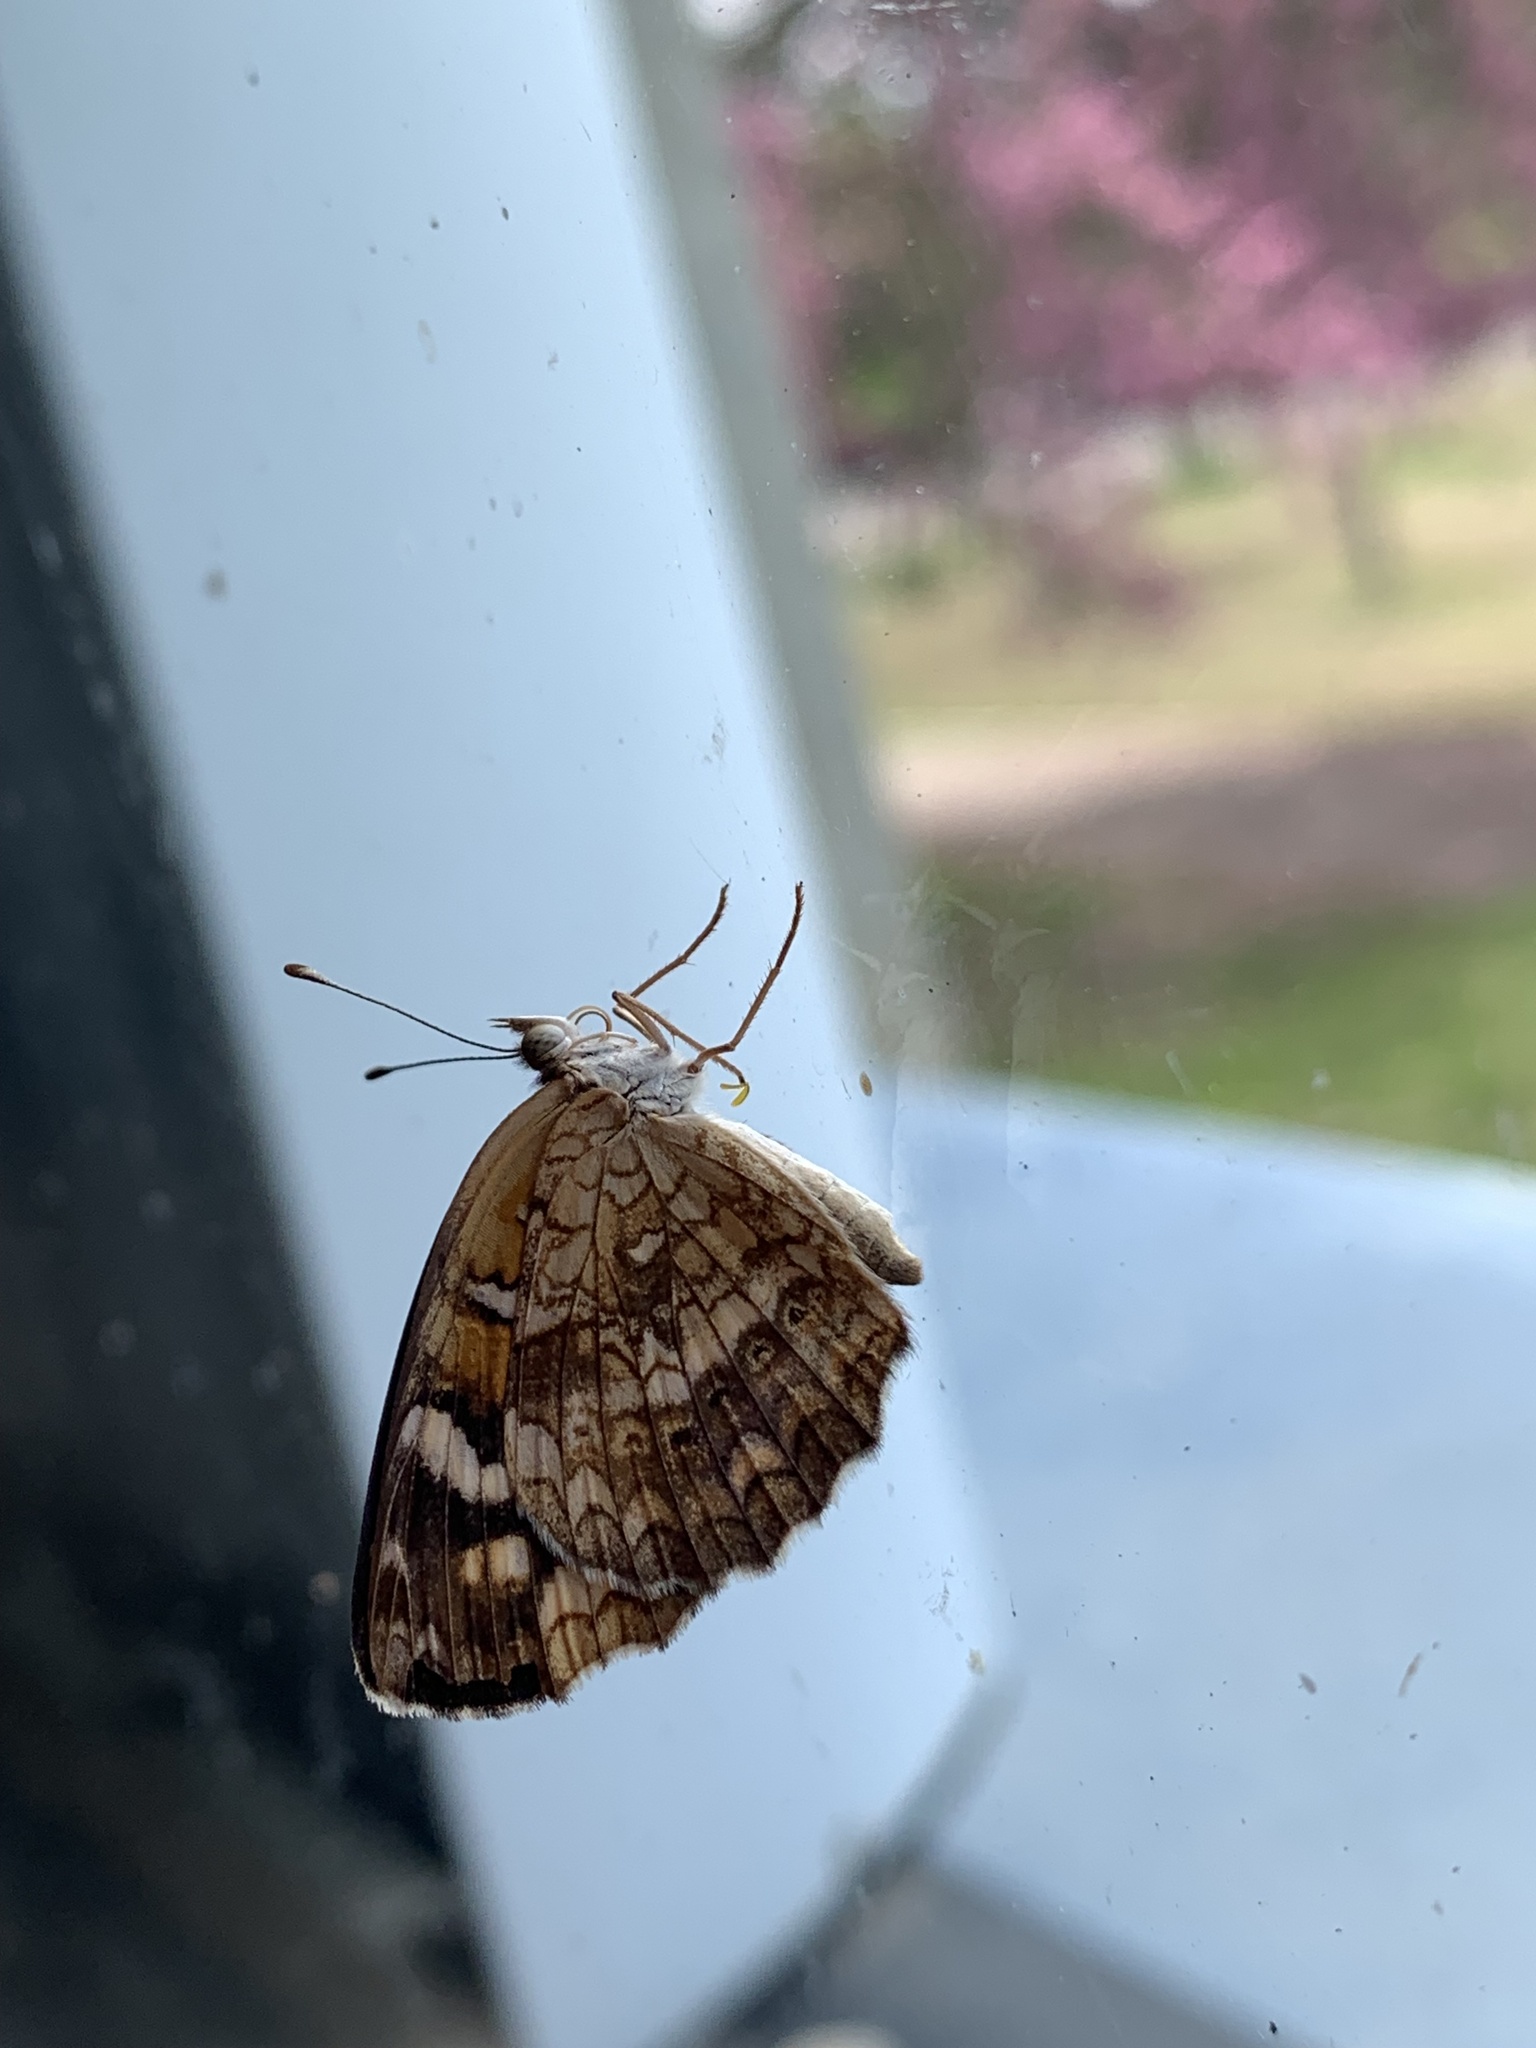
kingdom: Animalia
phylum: Arthropoda
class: Insecta
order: Lepidoptera
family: Nymphalidae
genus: Anthanassa
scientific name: Anthanassa hermas
